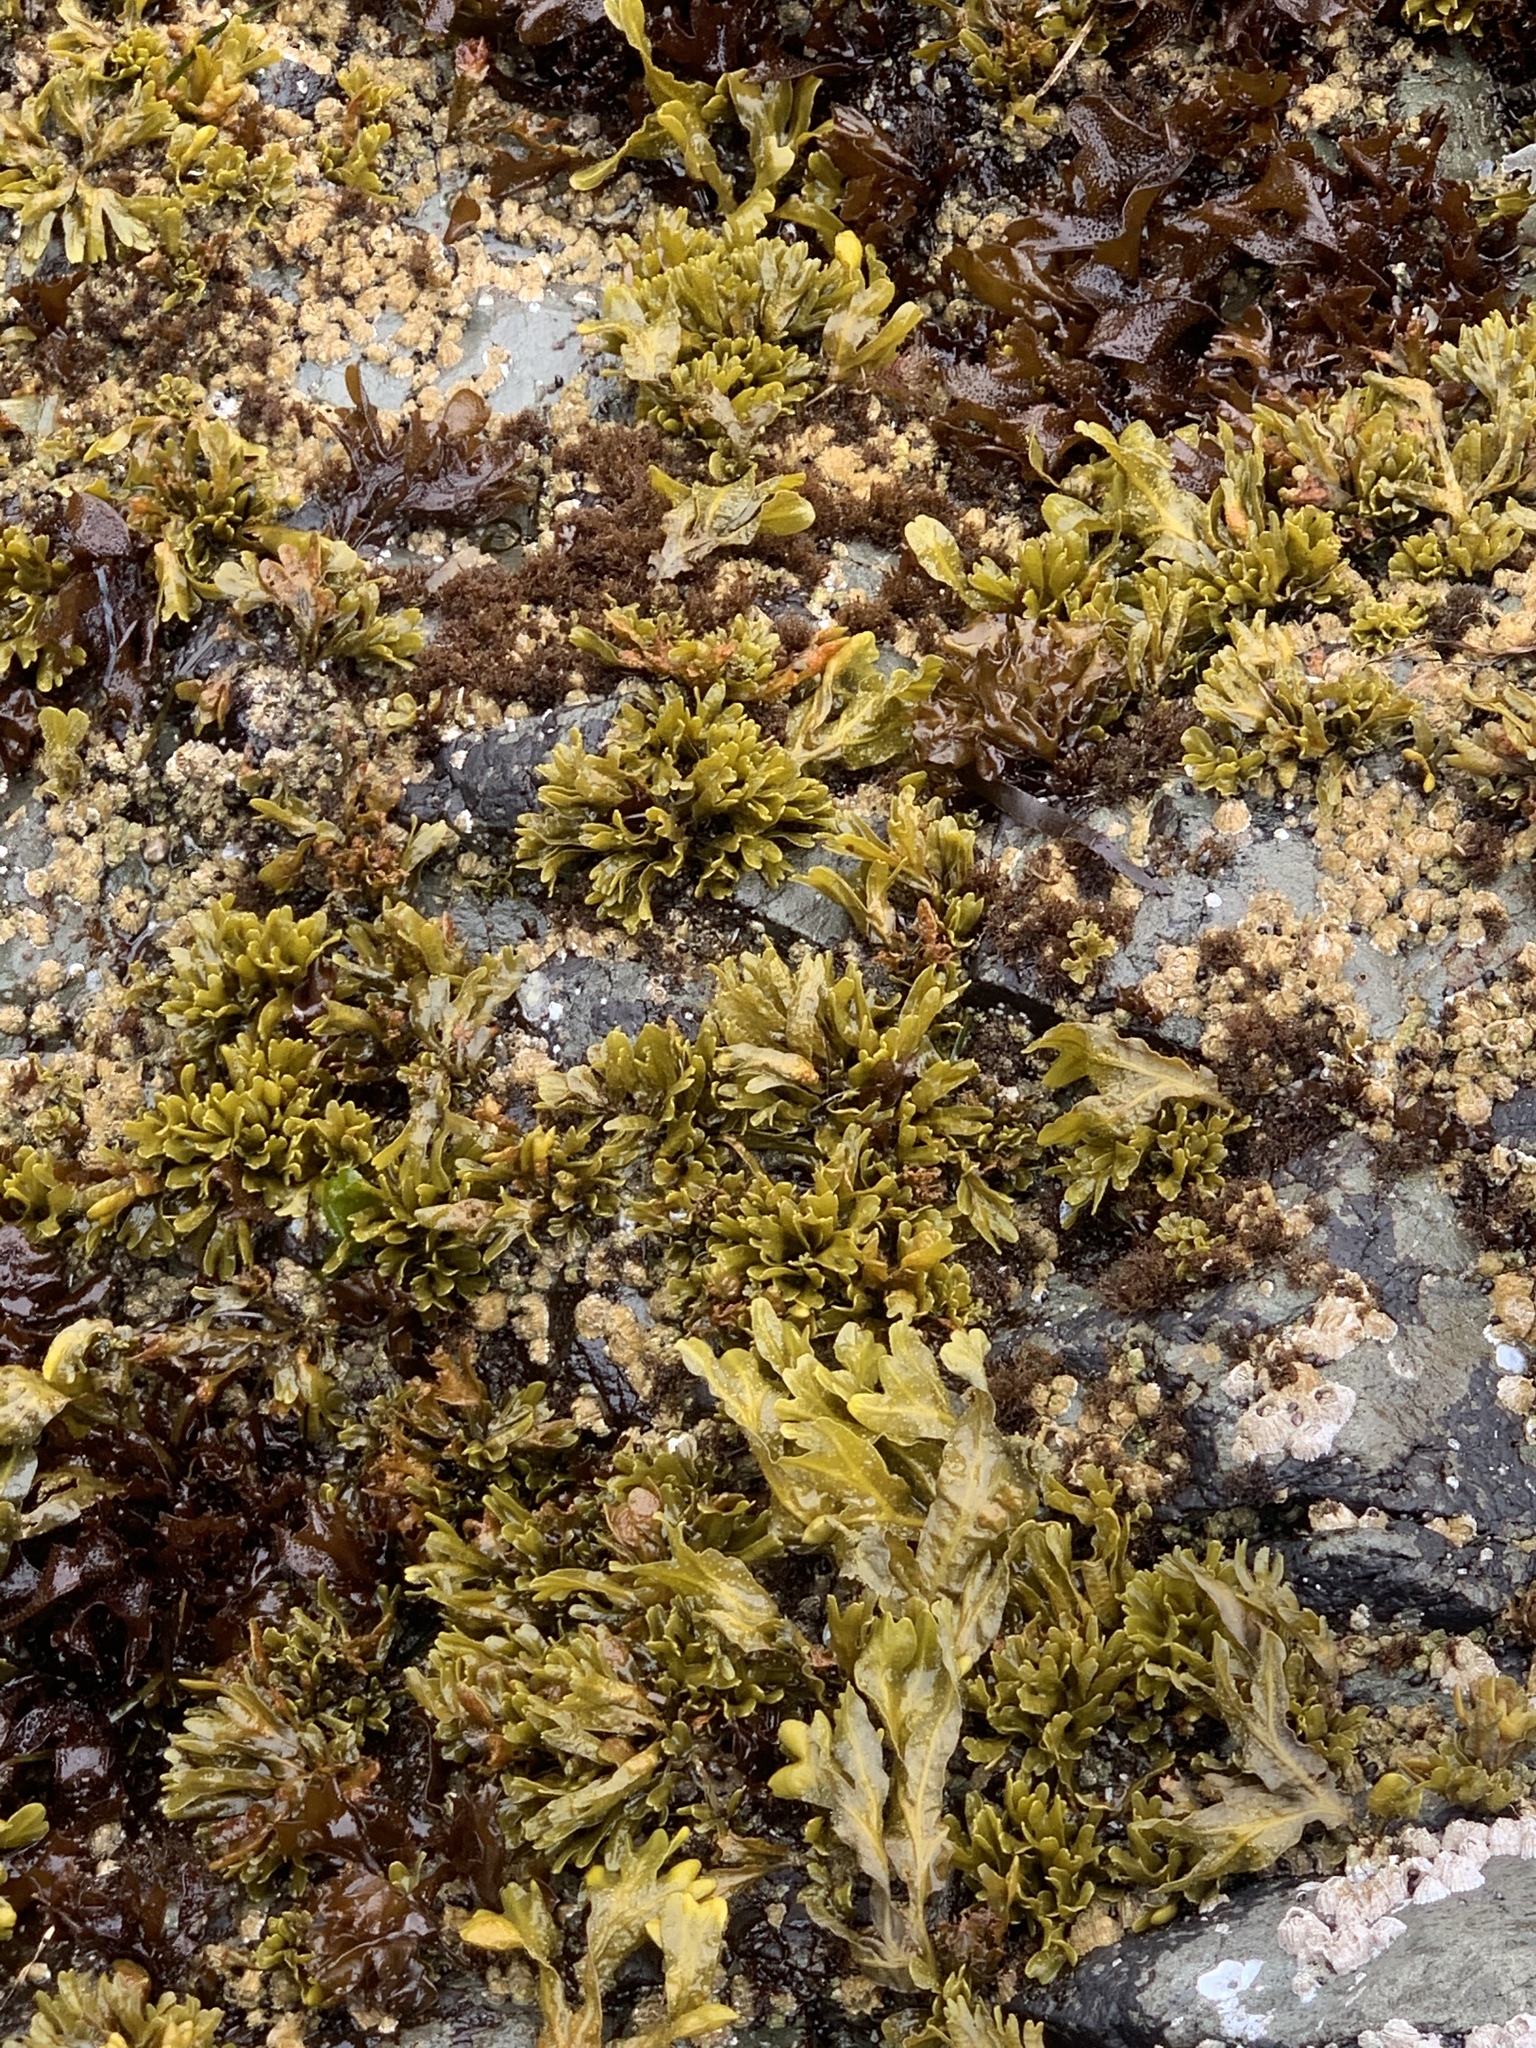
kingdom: Chromista
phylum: Ochrophyta
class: Phaeophyceae
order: Fucales
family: Fucaceae
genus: Fucus
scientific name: Fucus distichus
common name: Rockweed
